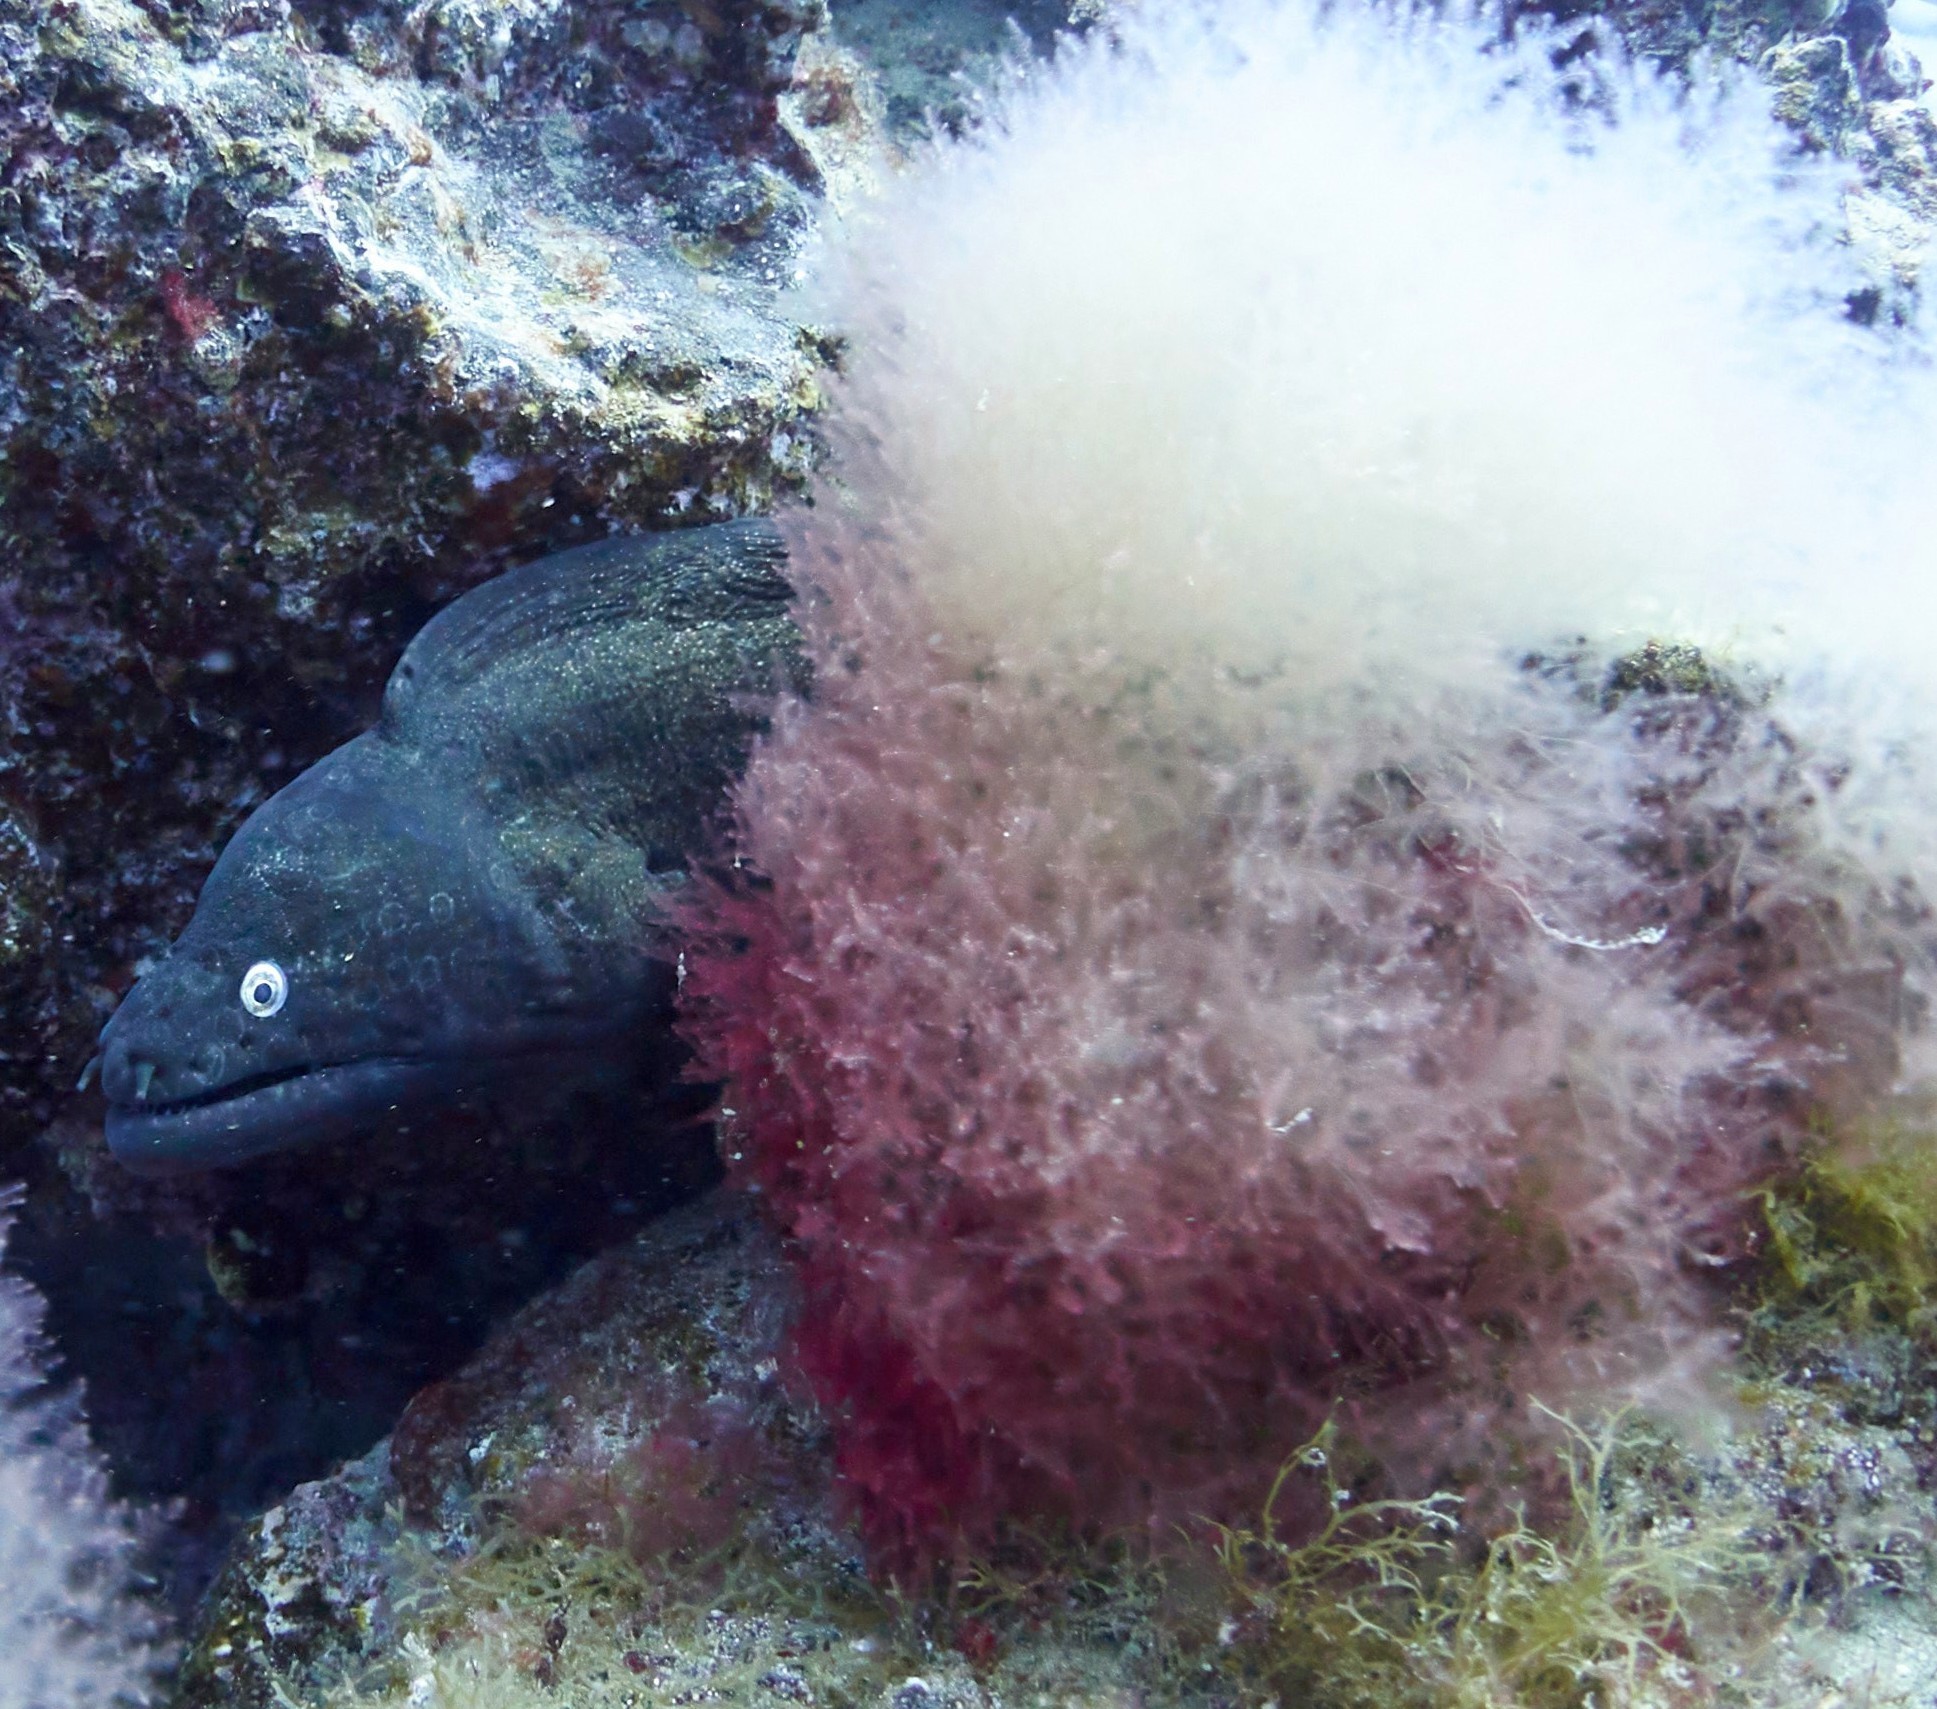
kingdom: Animalia
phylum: Chordata
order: Anguilliformes
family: Muraenidae
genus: Muraena
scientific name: Muraena augusti
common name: Mediterranean moray
